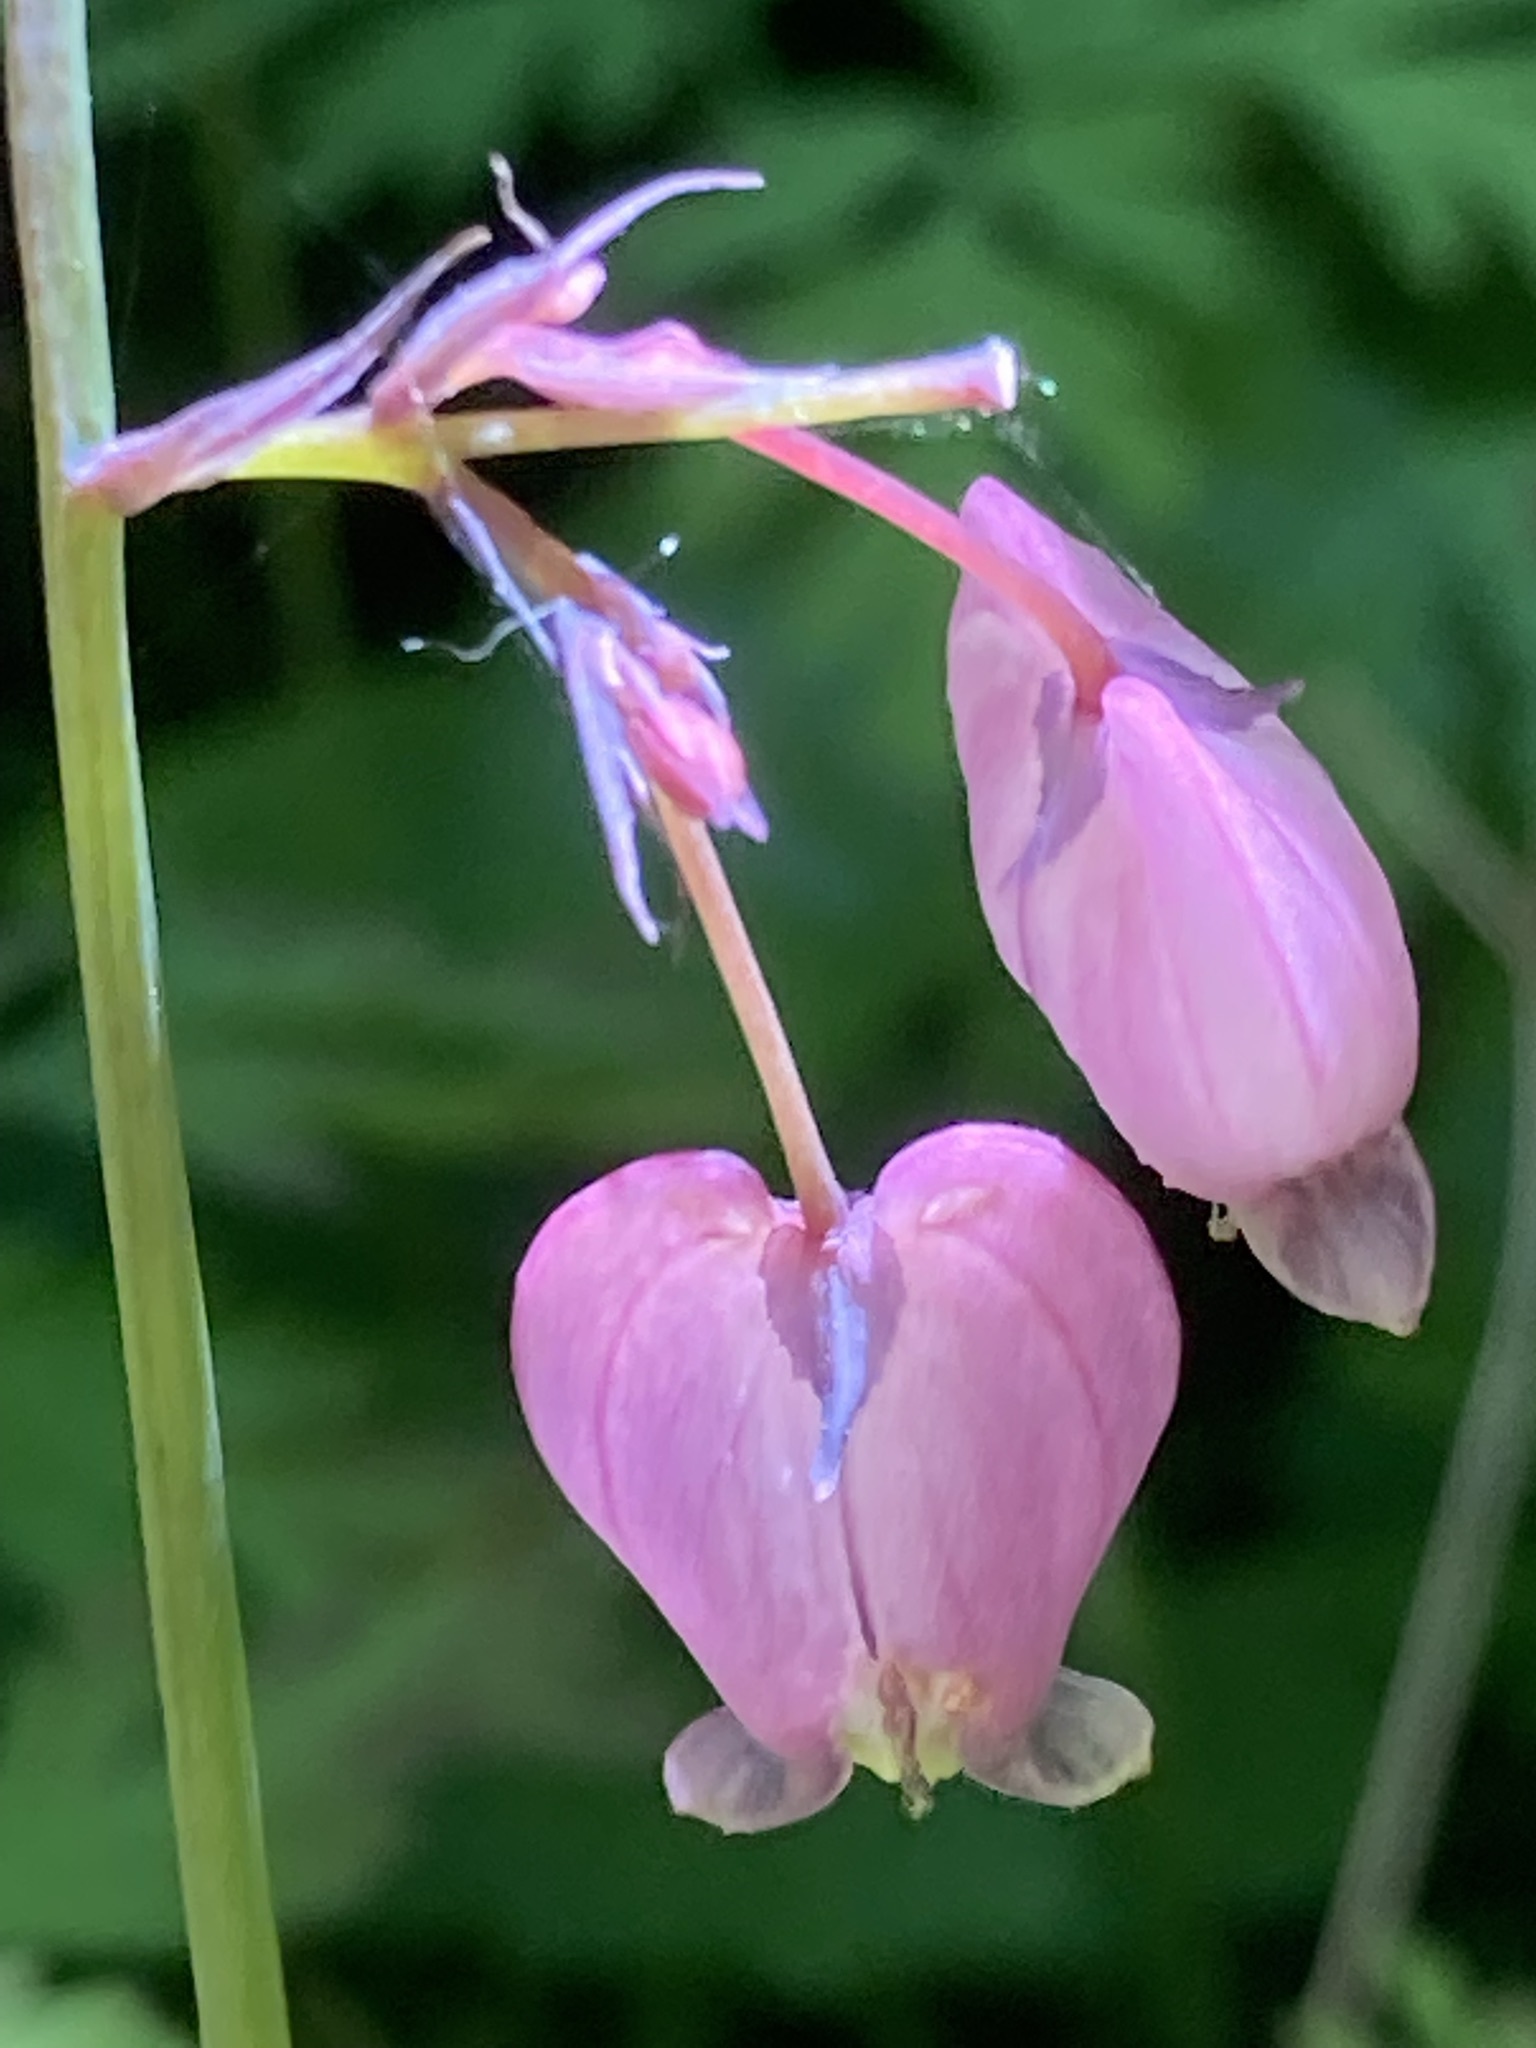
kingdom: Plantae
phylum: Tracheophyta
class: Magnoliopsida
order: Ranunculales
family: Papaveraceae
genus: Dicentra
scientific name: Dicentra formosa
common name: Bleeding-heart
